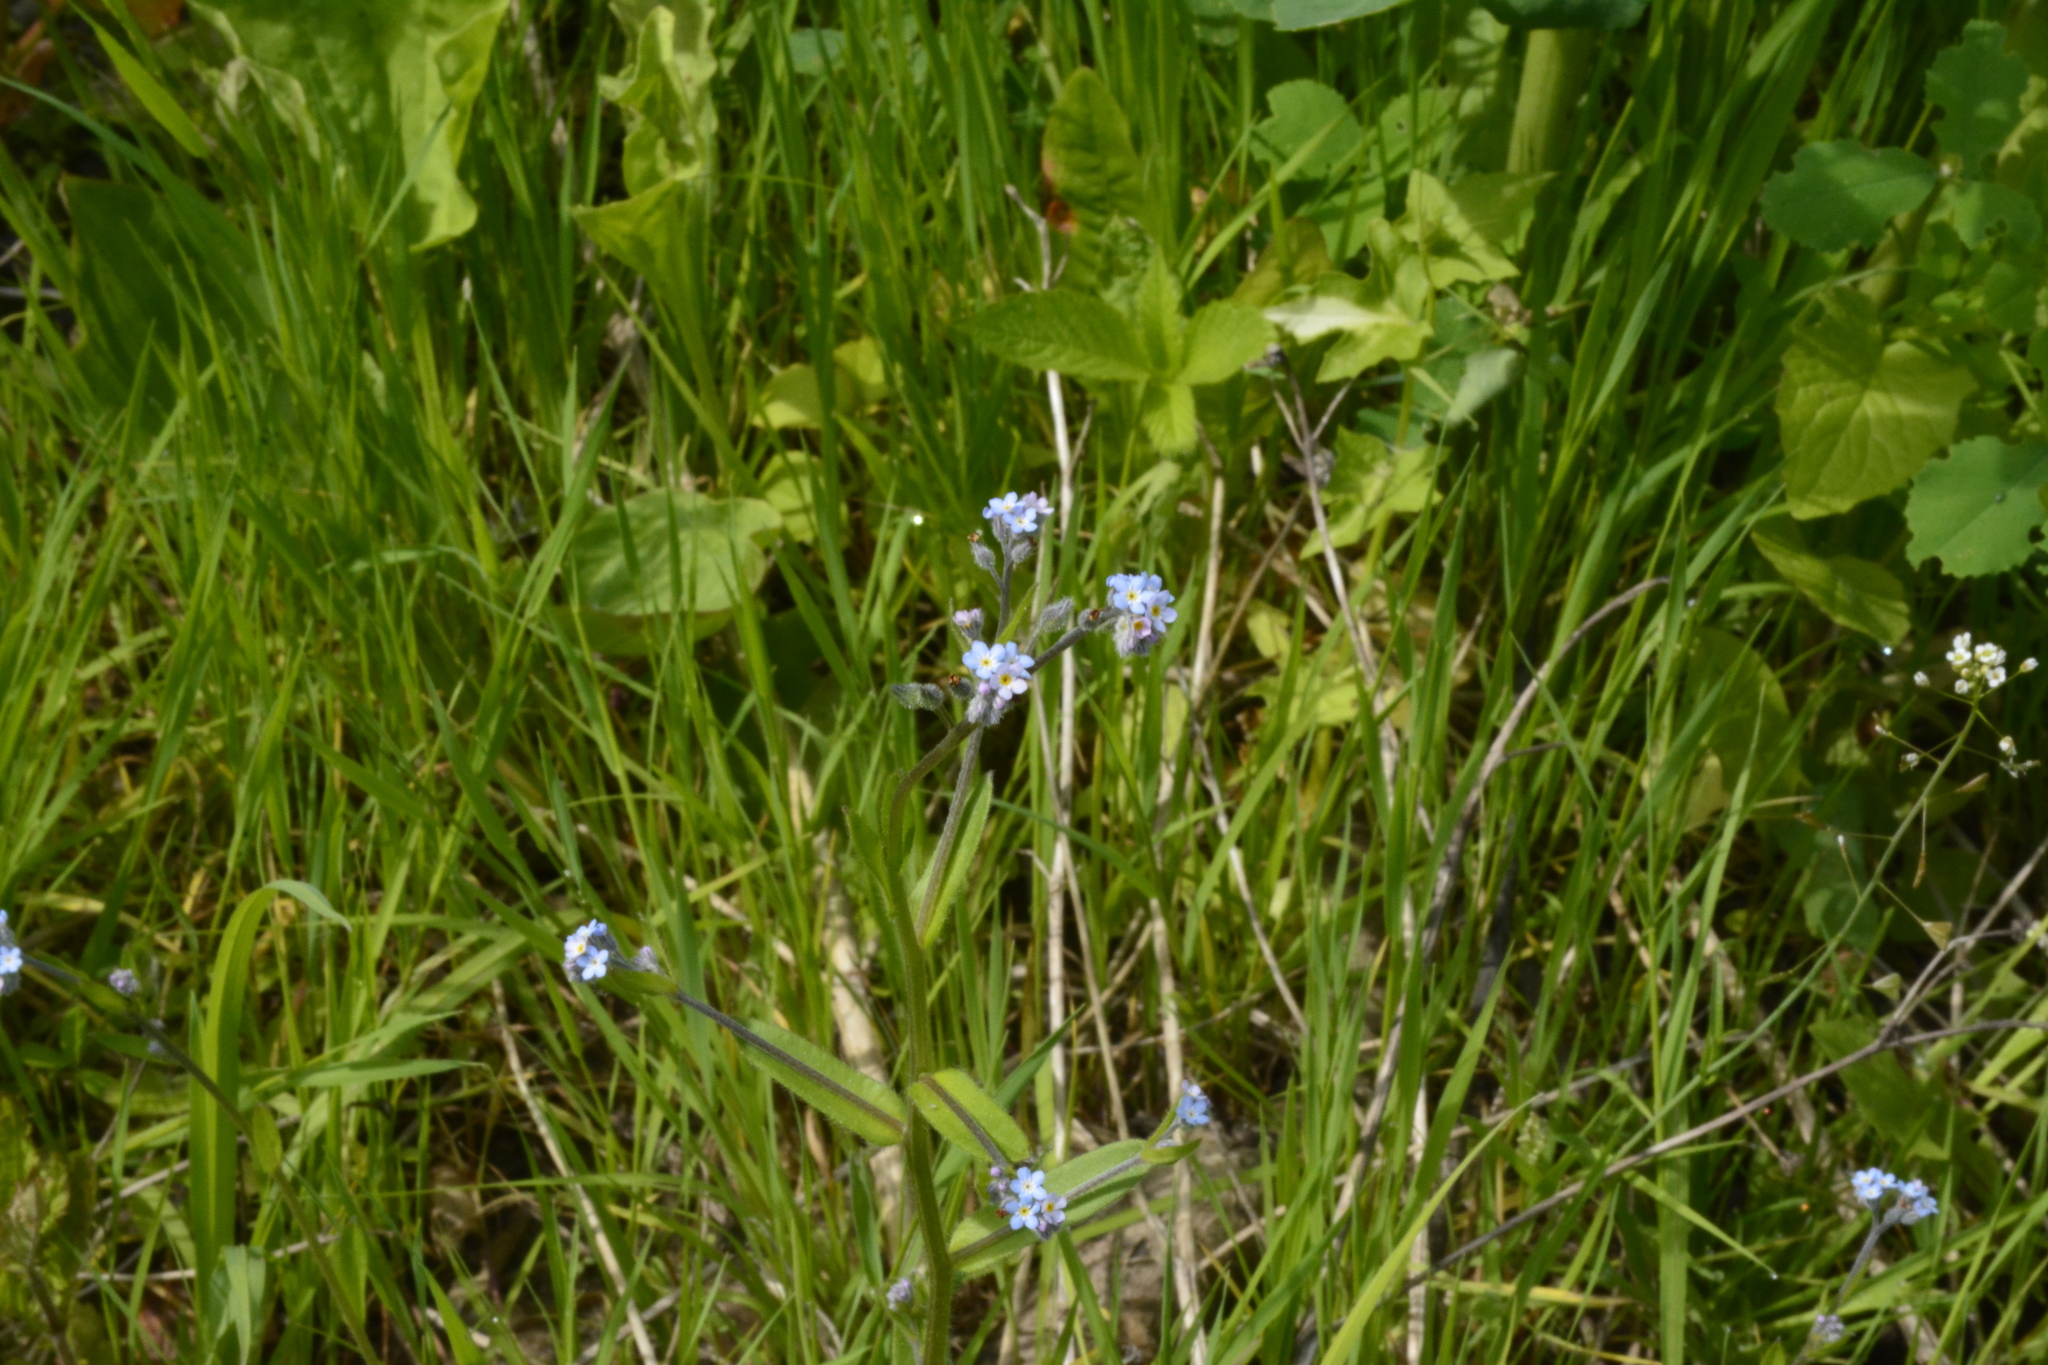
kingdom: Plantae
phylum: Tracheophyta
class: Magnoliopsida
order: Boraginales
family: Boraginaceae
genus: Myosotis
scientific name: Myosotis arvensis
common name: Field forget-me-not
